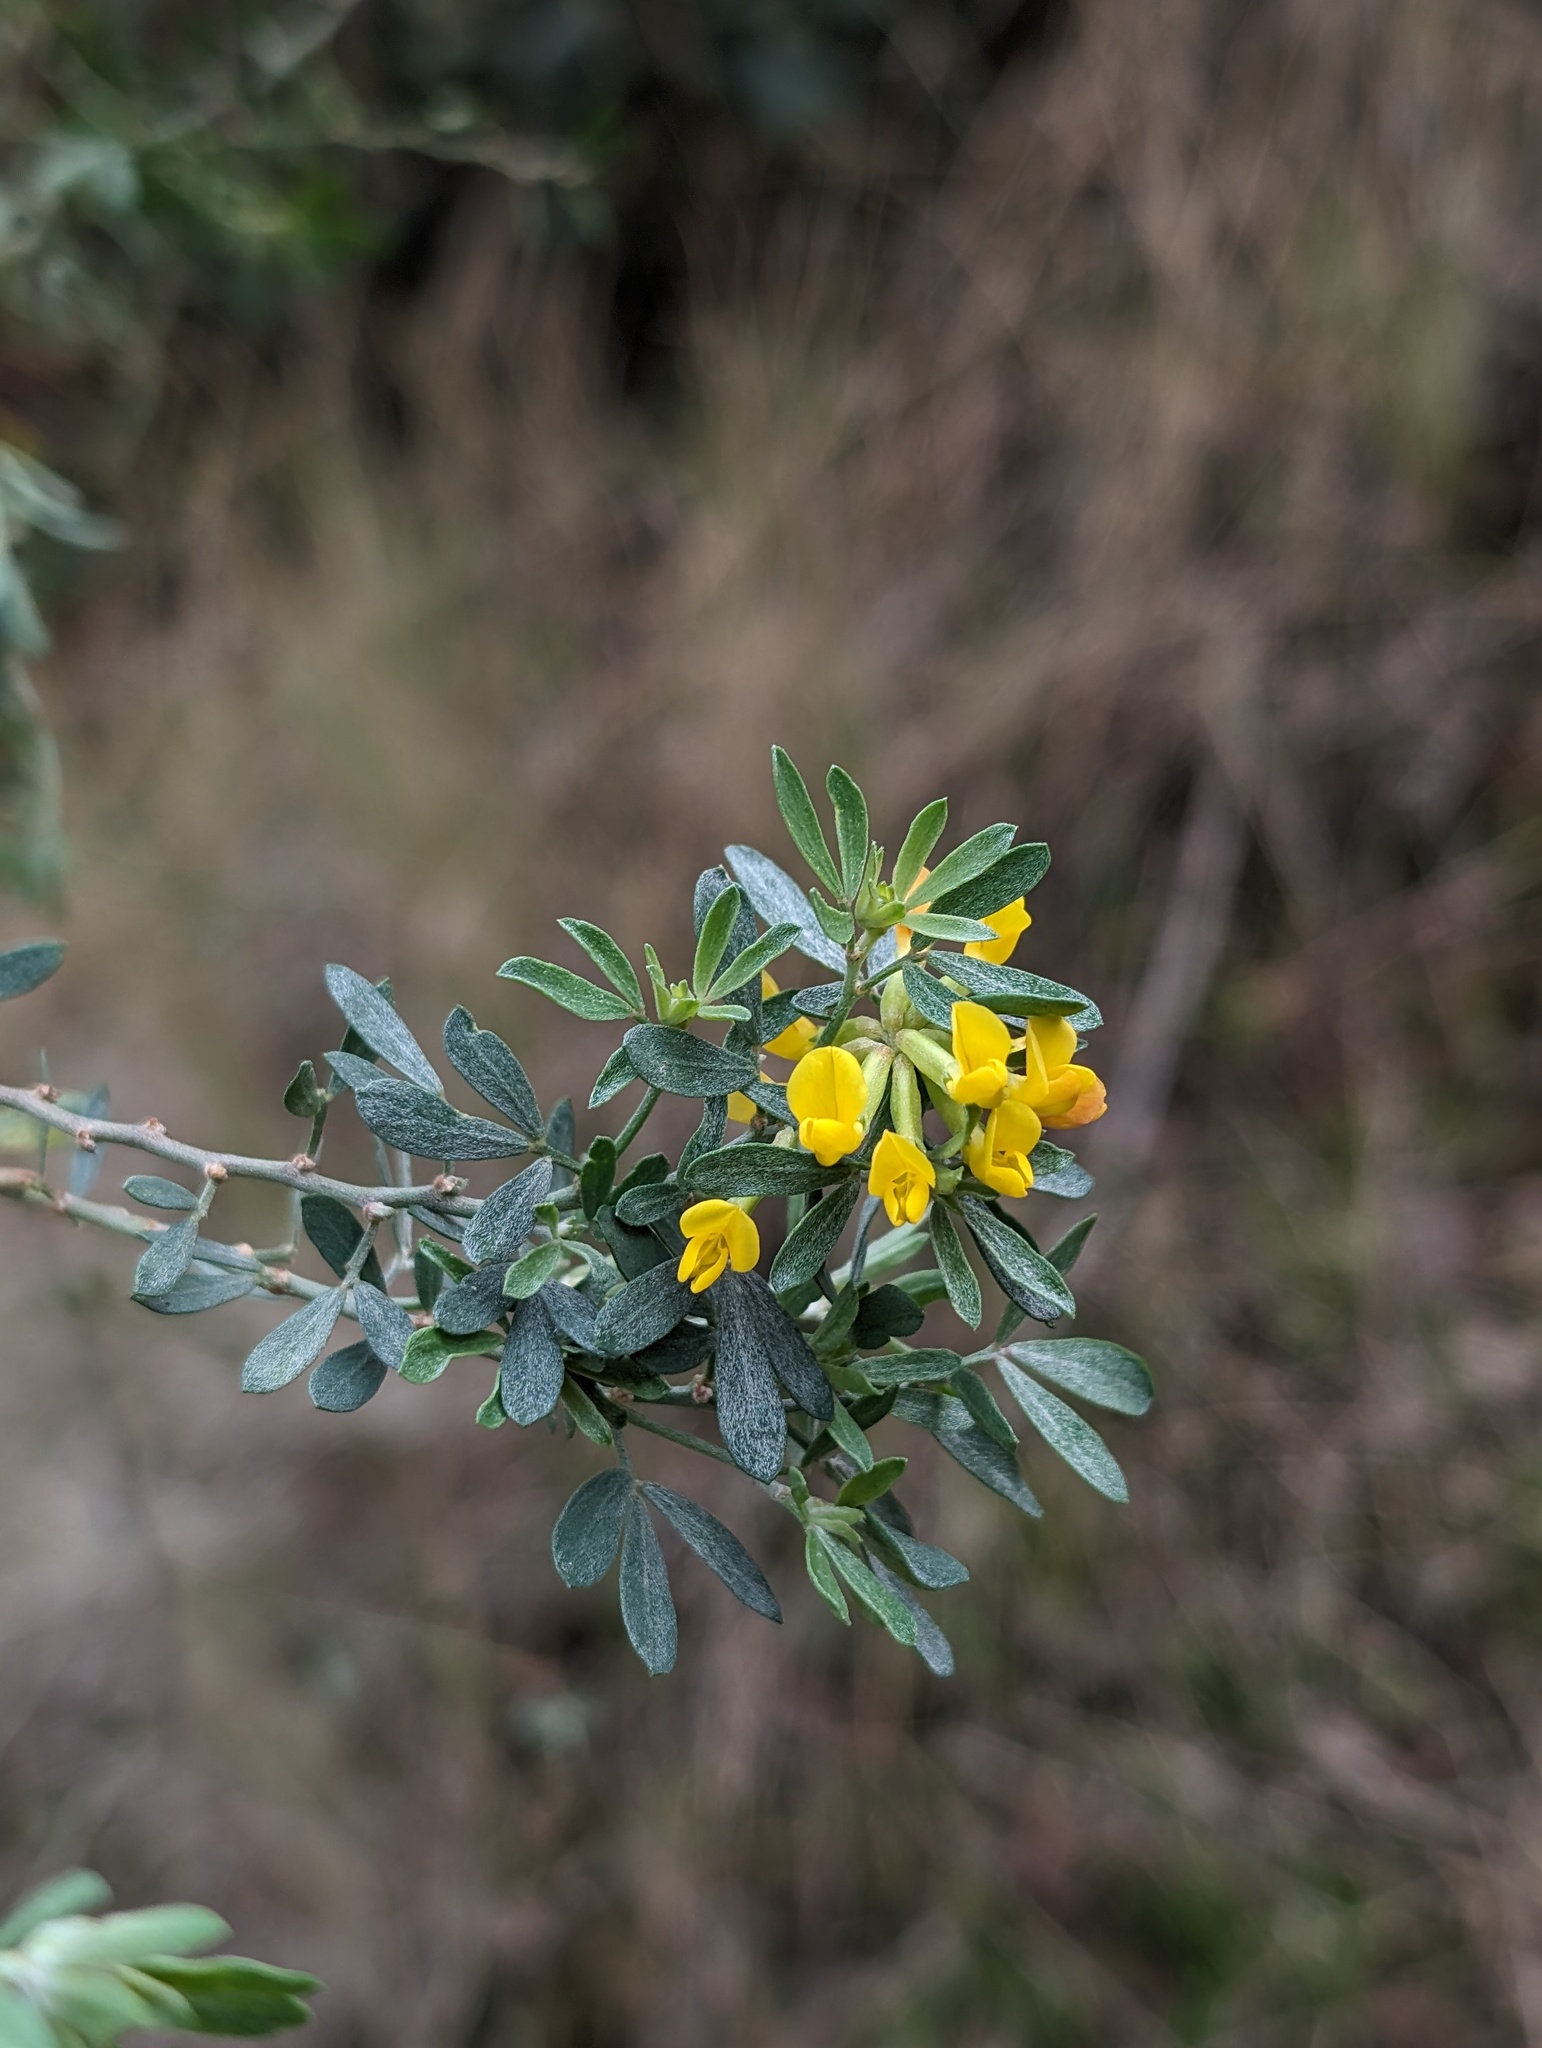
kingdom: Plantae
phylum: Tracheophyta
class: Magnoliopsida
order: Fabales
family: Fabaceae
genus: Acmispon
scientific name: Acmispon dendroideus
